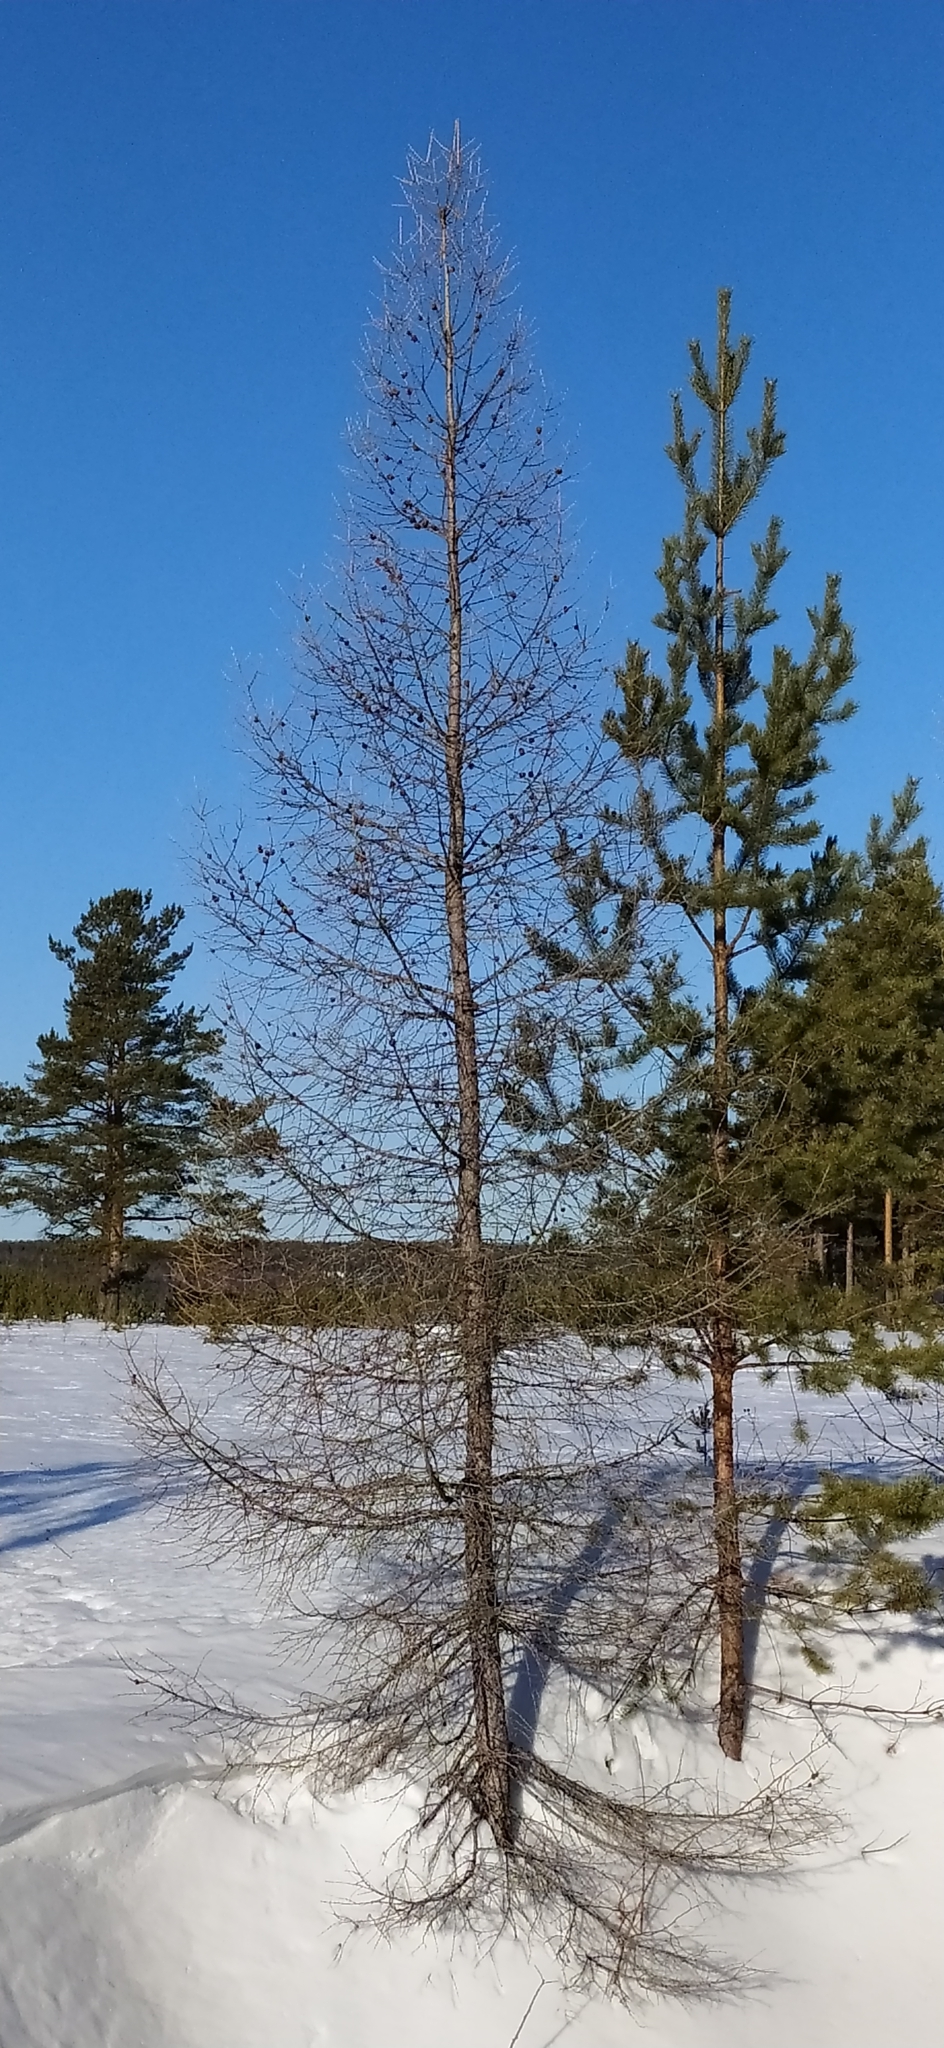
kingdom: Plantae
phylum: Tracheophyta
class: Pinopsida
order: Pinales
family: Pinaceae
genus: Larix
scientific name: Larix sibirica
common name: Siberian larch
